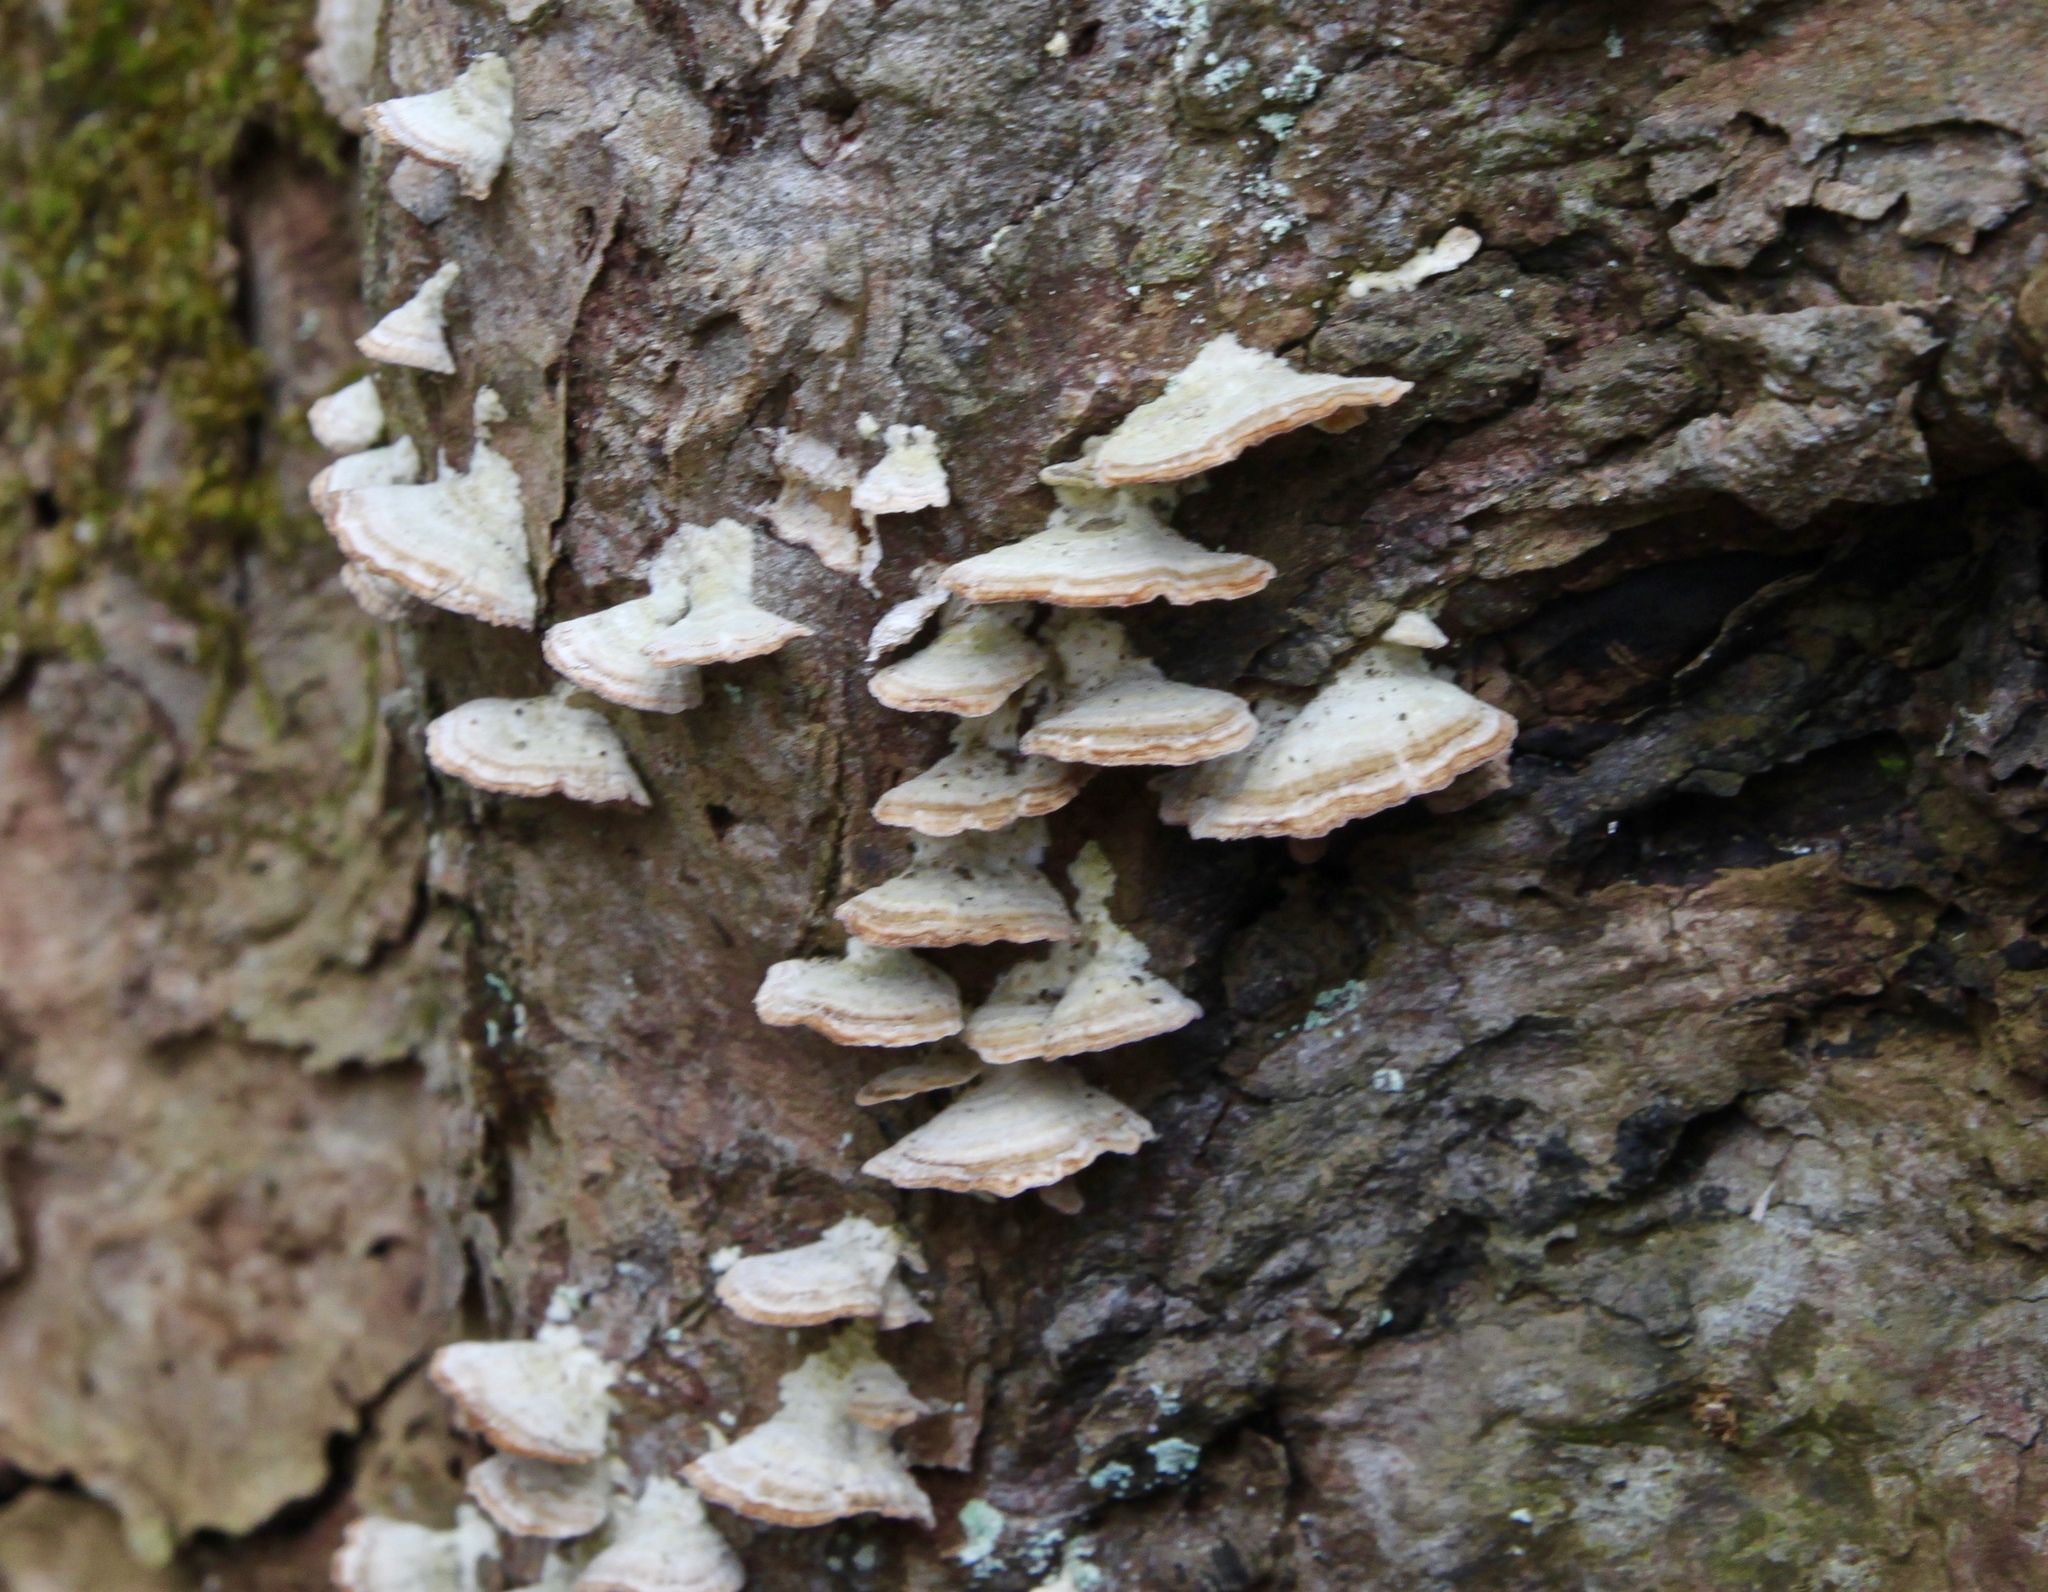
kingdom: Fungi
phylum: Basidiomycota
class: Agaricomycetes
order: Hymenochaetales
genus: Trichaptum
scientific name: Trichaptum biforme
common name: Violet-toothed polypore
